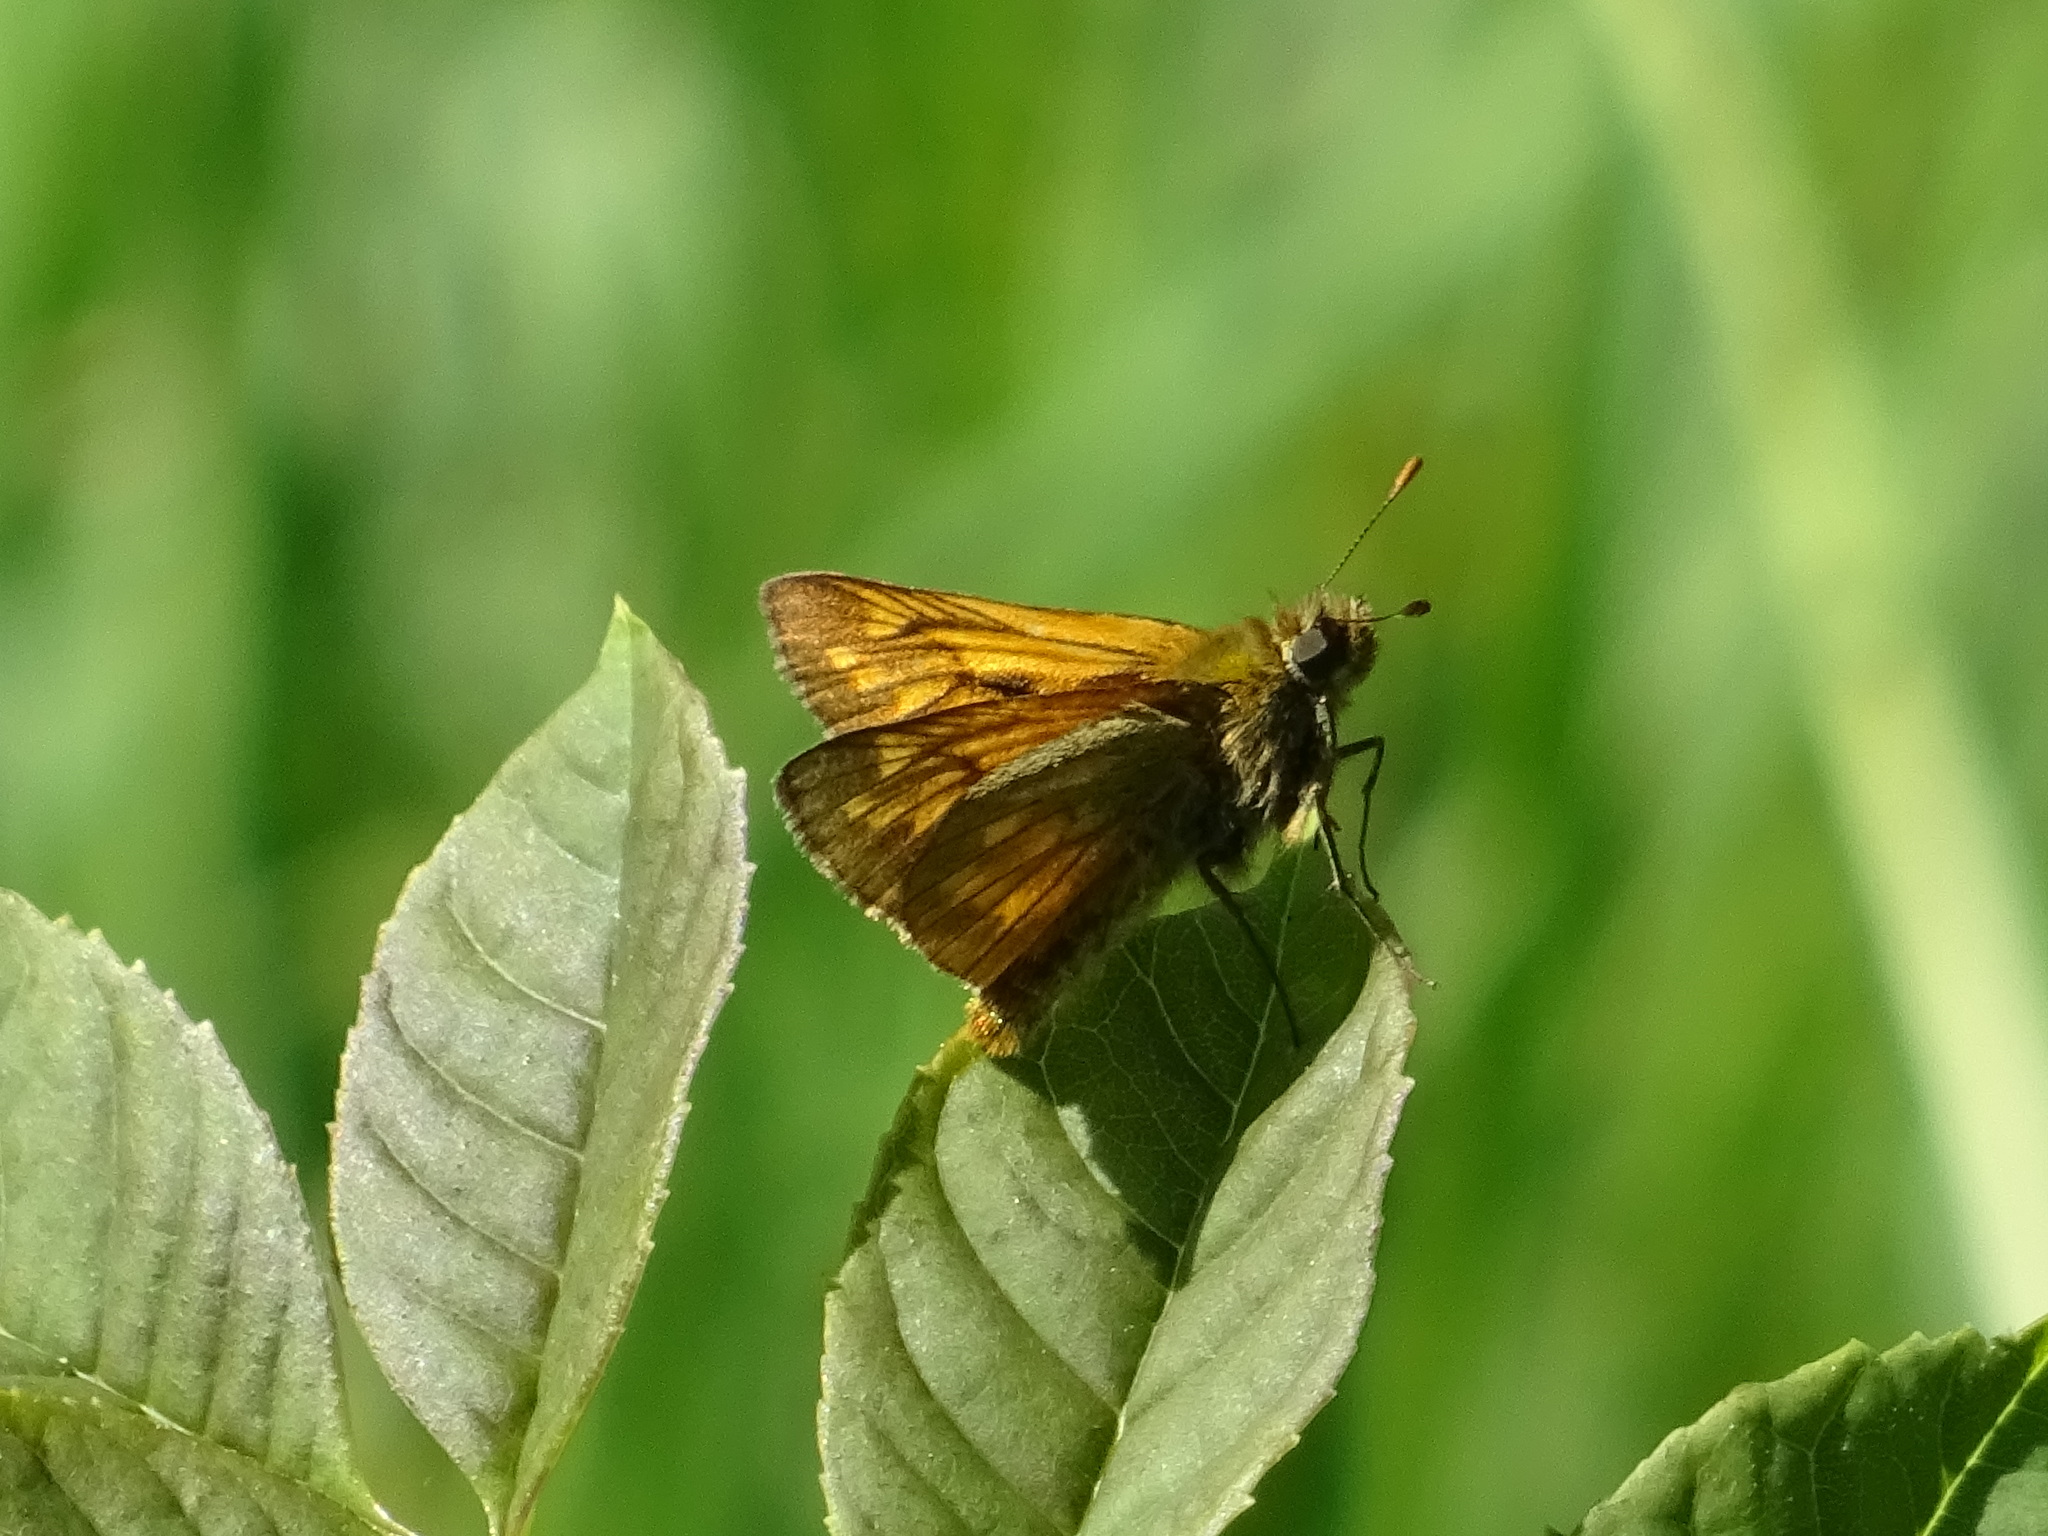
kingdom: Animalia
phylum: Arthropoda
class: Insecta
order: Lepidoptera
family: Hesperiidae
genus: Ochlodes
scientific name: Ochlodes venata
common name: Large skipper
